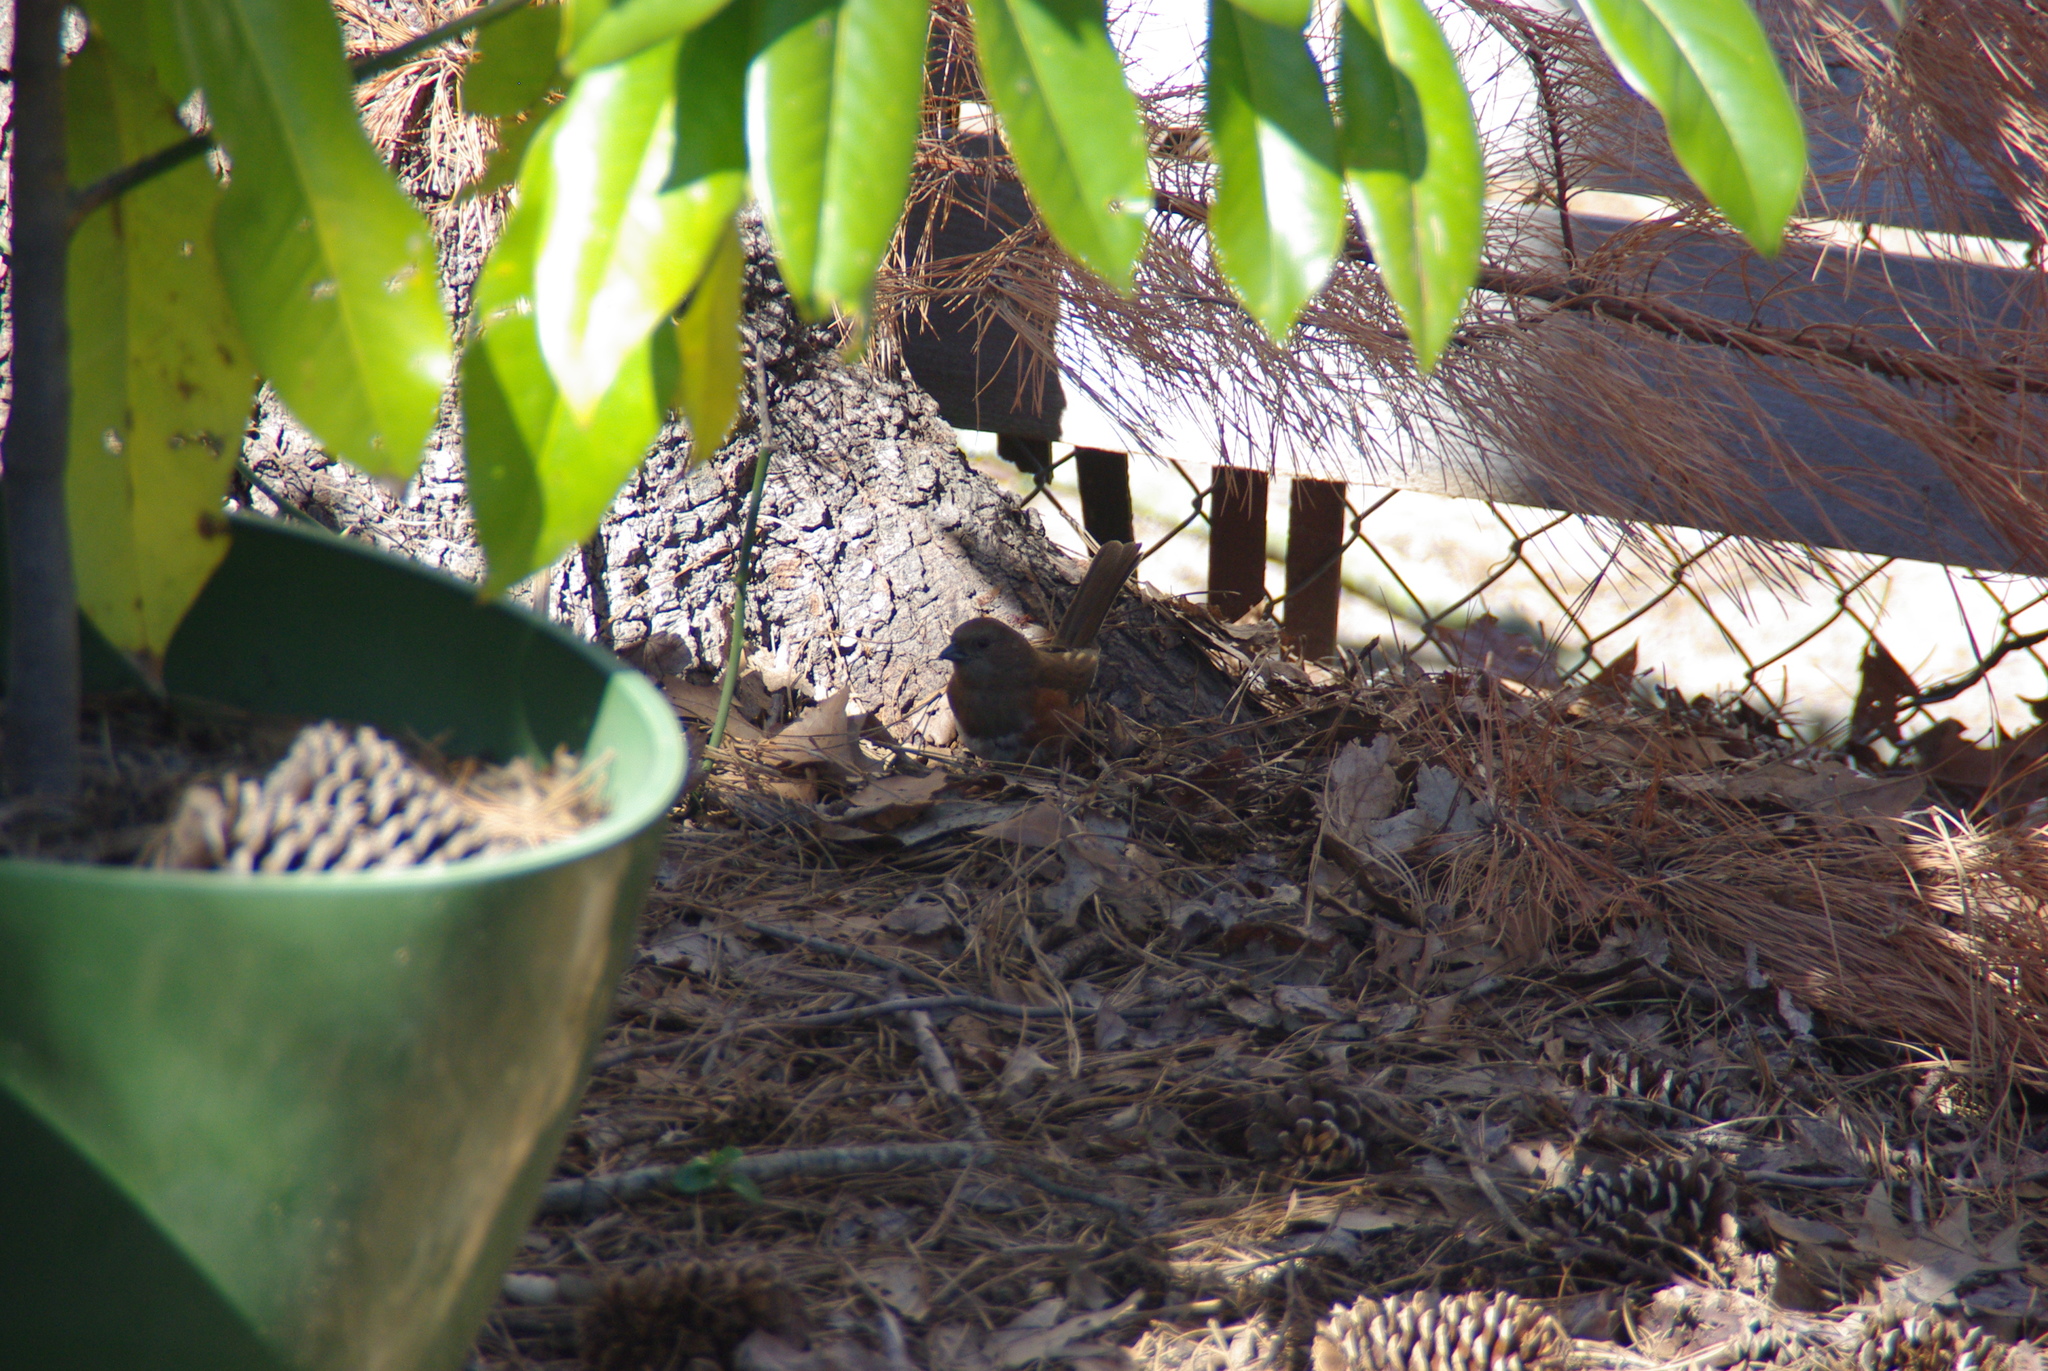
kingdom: Animalia
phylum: Chordata
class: Aves
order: Passeriformes
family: Passerellidae
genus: Pipilo
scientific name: Pipilo erythrophthalmus
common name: Eastern towhee
